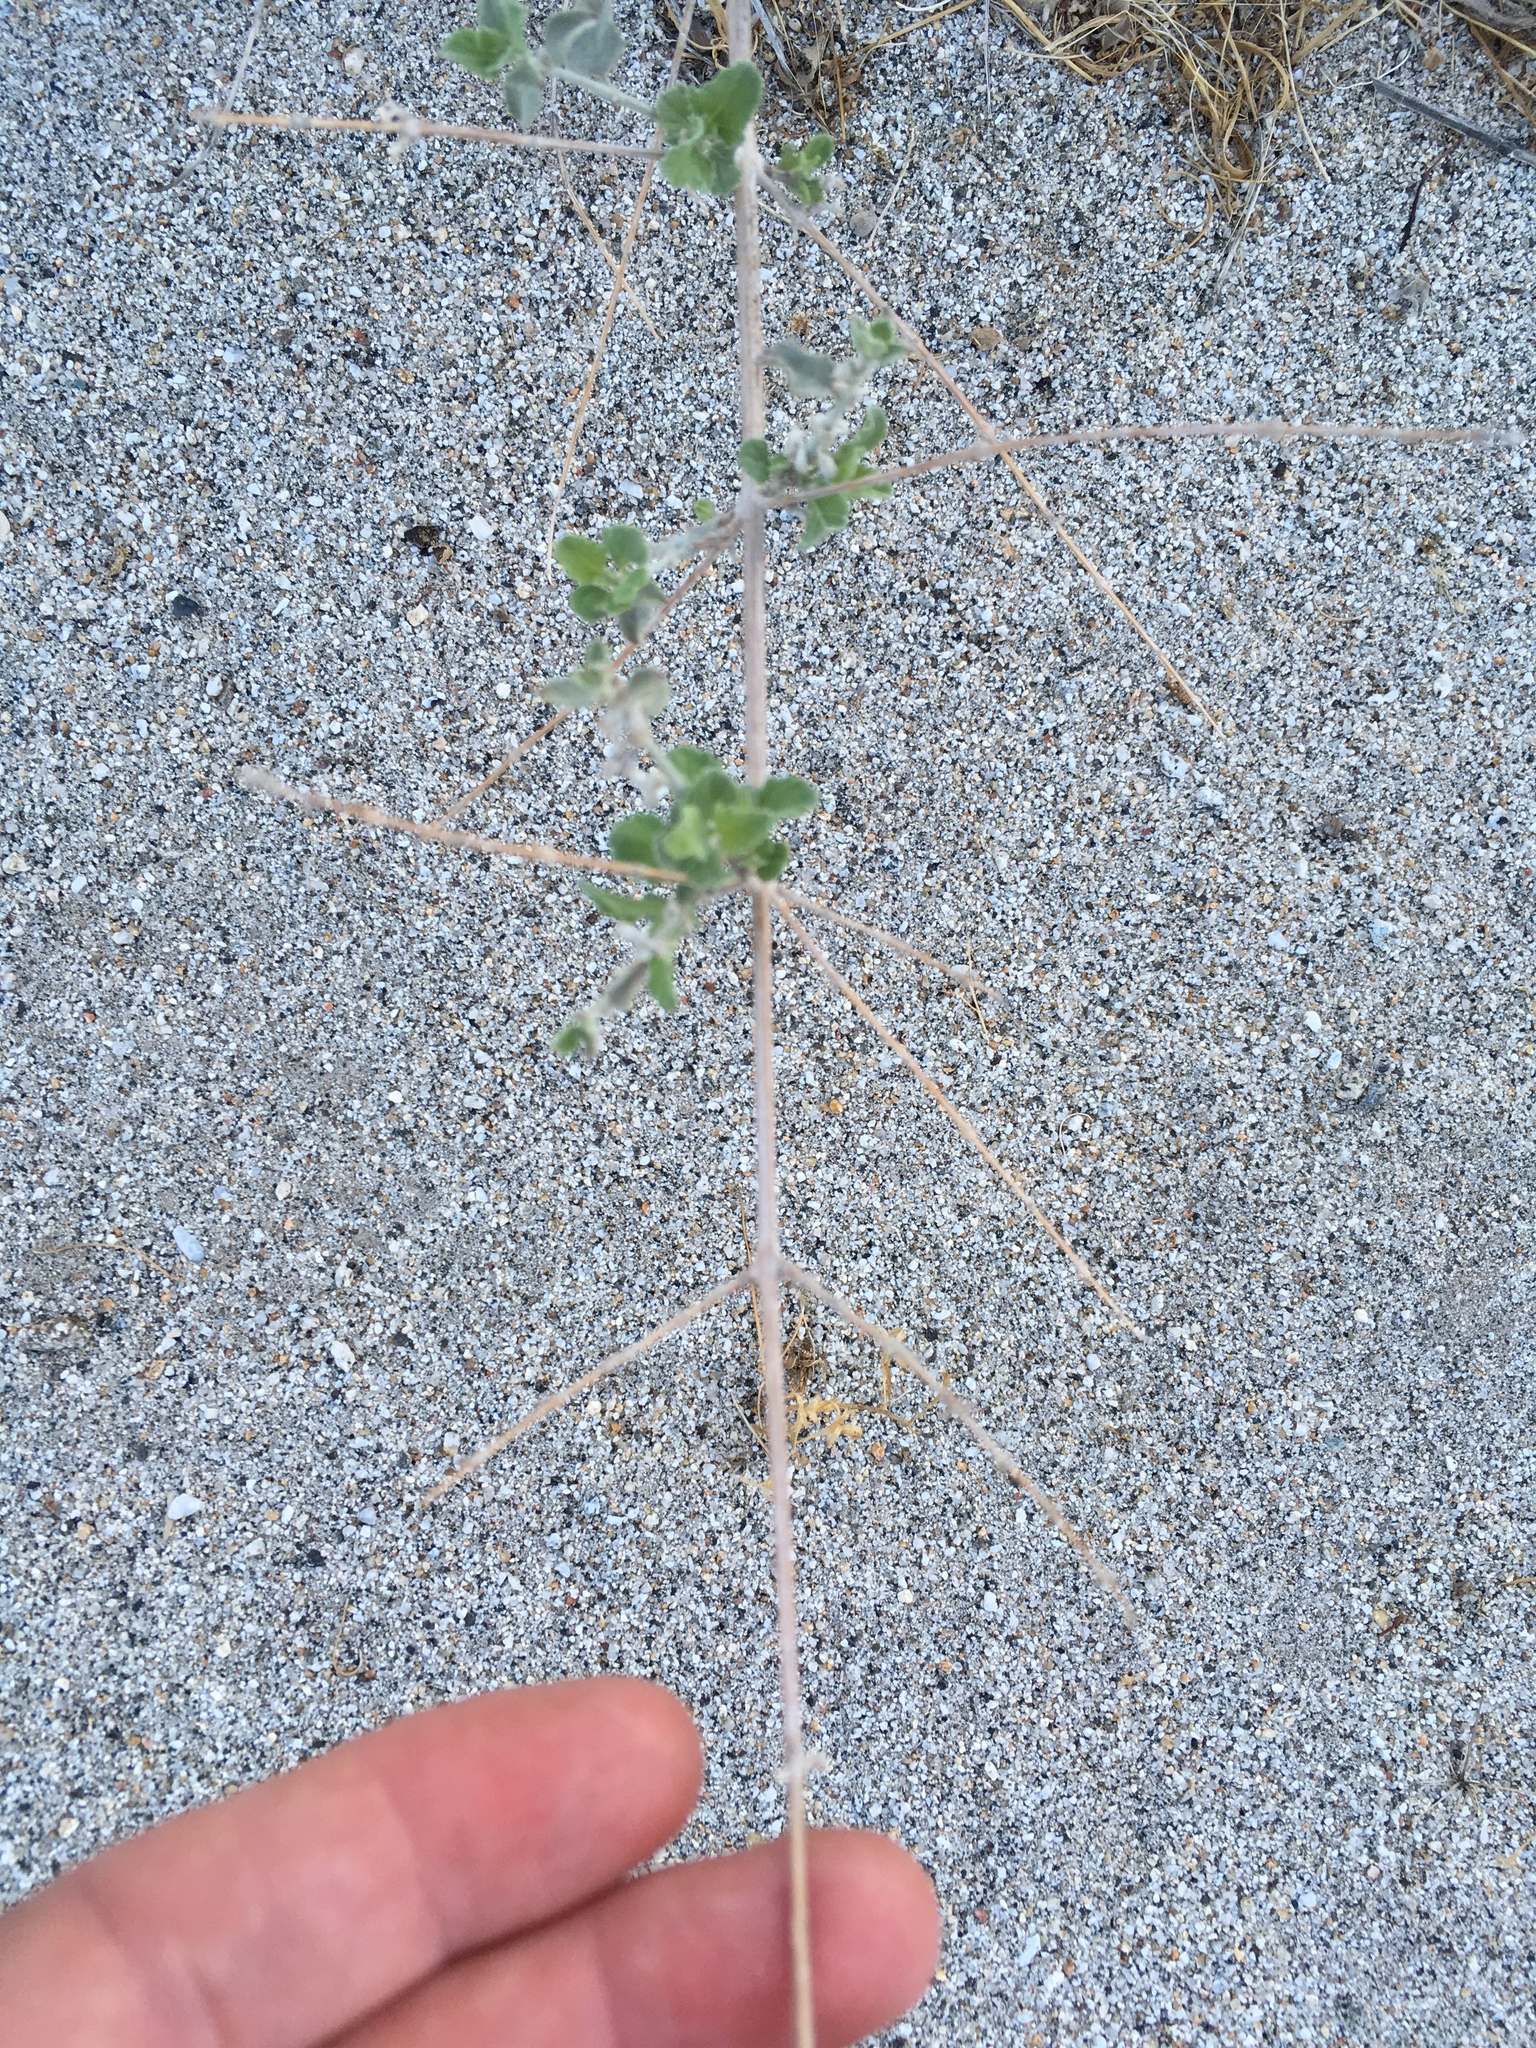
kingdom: Plantae
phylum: Tracheophyta
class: Magnoliopsida
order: Lamiales
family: Lamiaceae
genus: Condea
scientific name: Condea emoryi
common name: Chia
